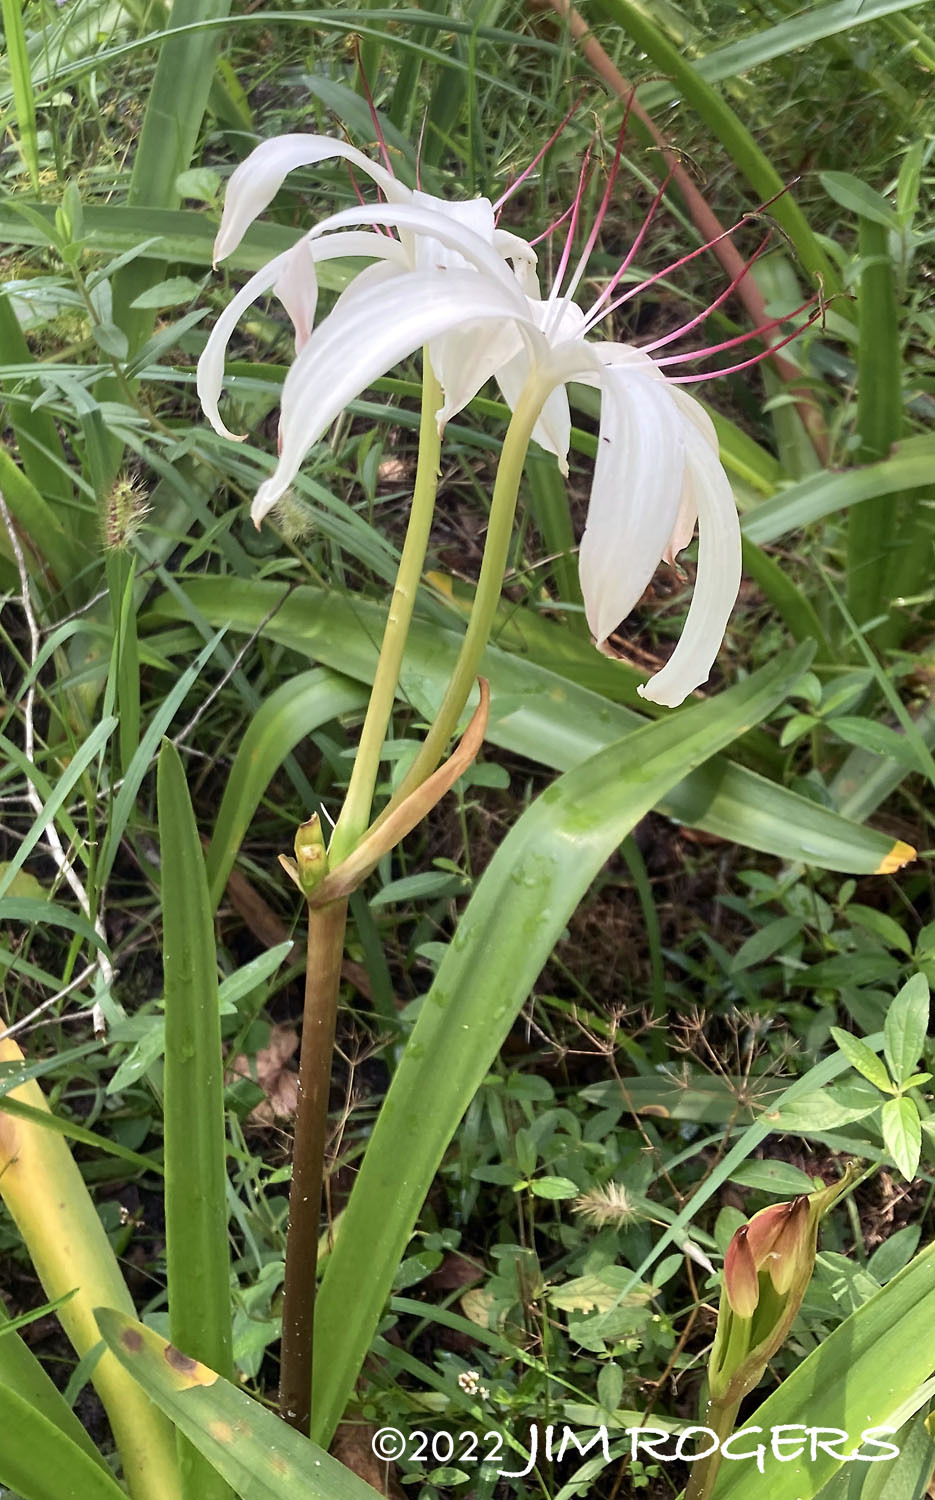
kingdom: Plantae
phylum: Tracheophyta
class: Liliopsida
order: Asparagales
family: Amaryllidaceae
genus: Crinum
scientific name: Crinum americanum
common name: Florida swamp-lily
